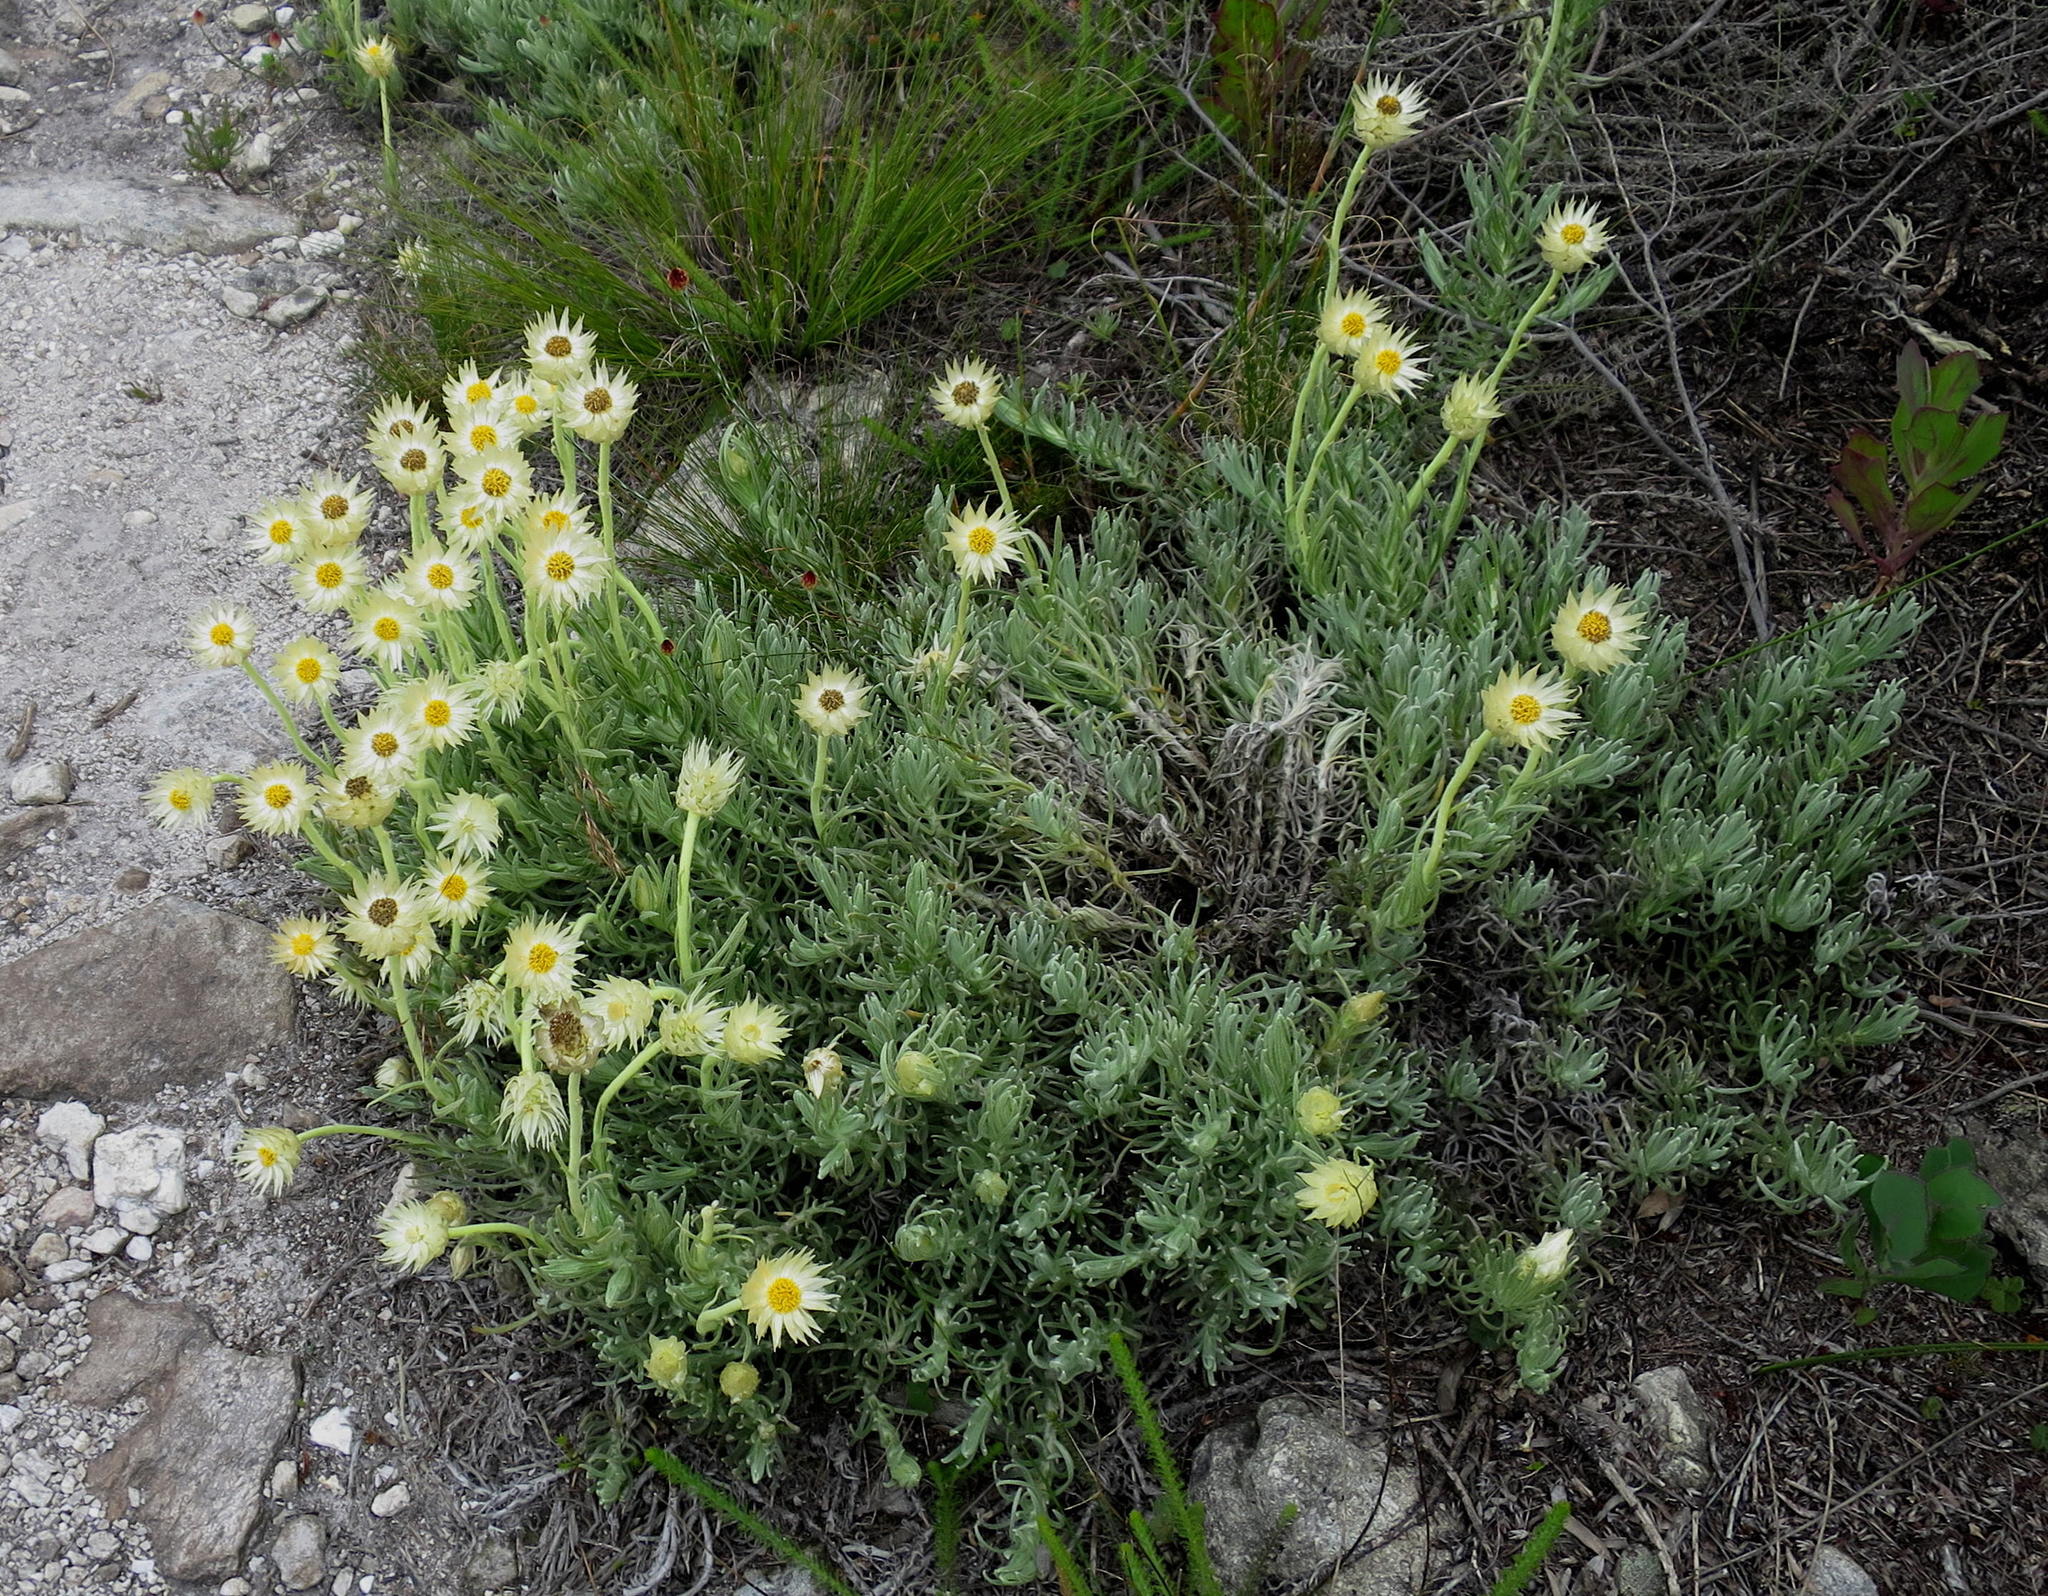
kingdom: Plantae
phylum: Tracheophyta
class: Magnoliopsida
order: Asterales
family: Asteraceae
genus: Syncarpha
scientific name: Syncarpha speciosissima
